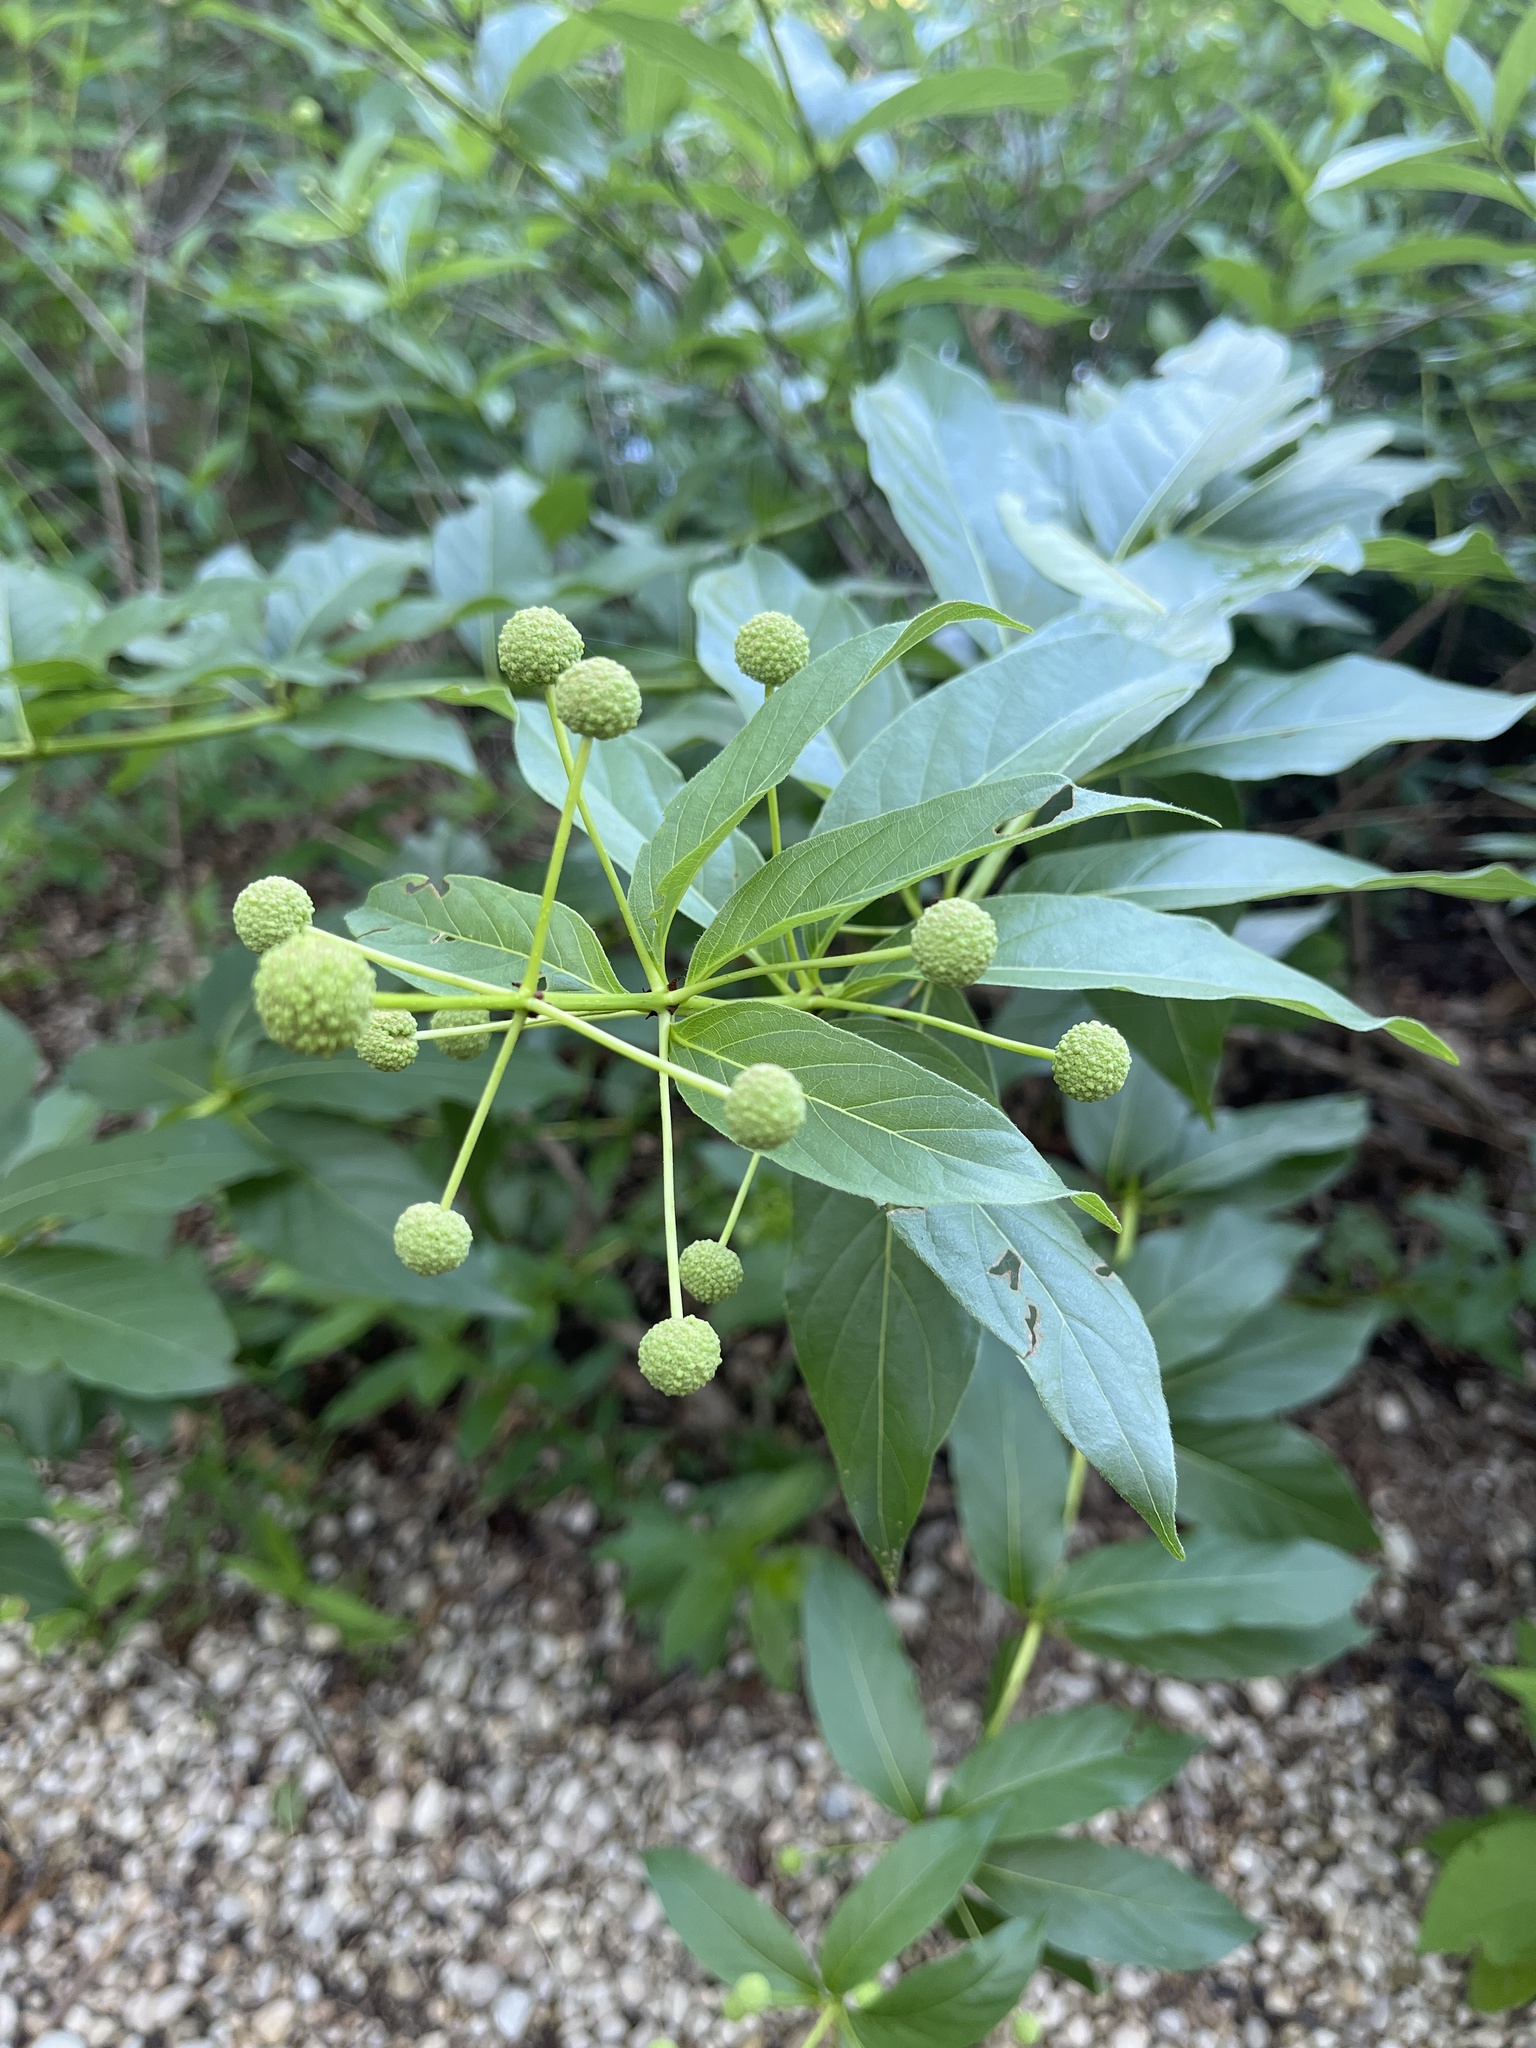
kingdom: Plantae
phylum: Tracheophyta
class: Magnoliopsida
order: Gentianales
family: Rubiaceae
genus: Cephalanthus
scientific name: Cephalanthus occidentalis
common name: Button-willow
